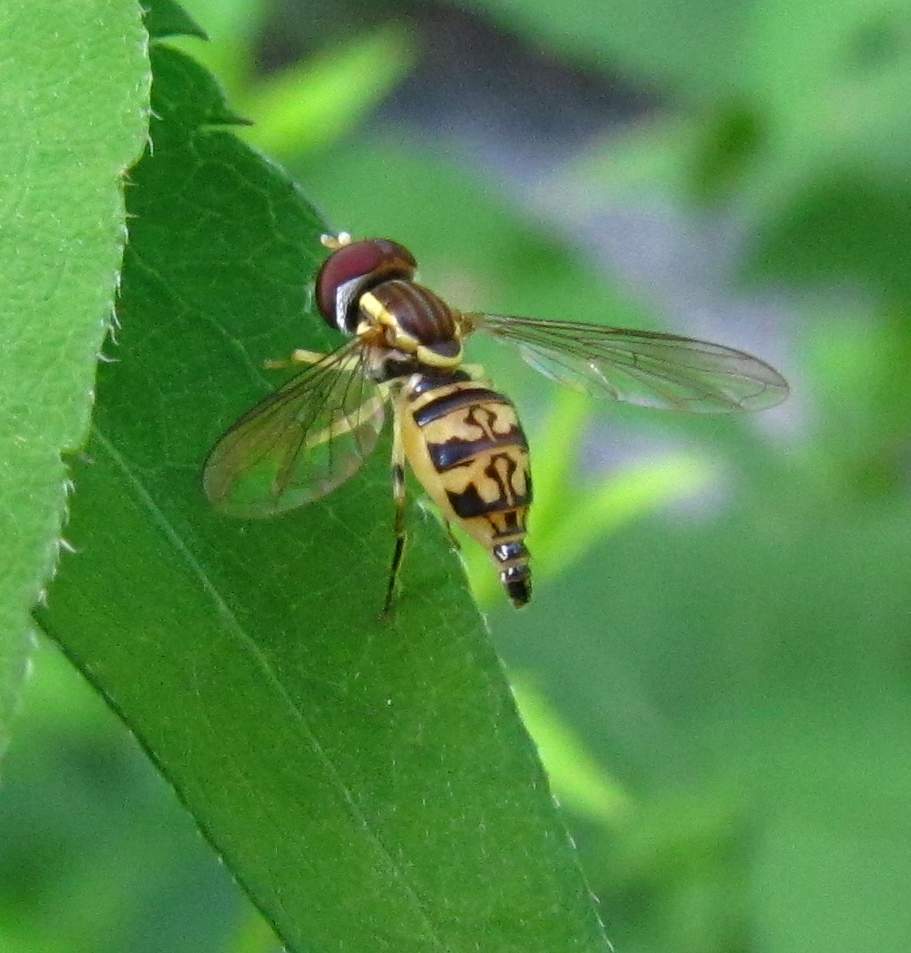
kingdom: Animalia
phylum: Arthropoda
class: Insecta
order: Diptera
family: Syrphidae
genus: Toxomerus
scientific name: Toxomerus geminatus
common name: Eastern calligrapher
